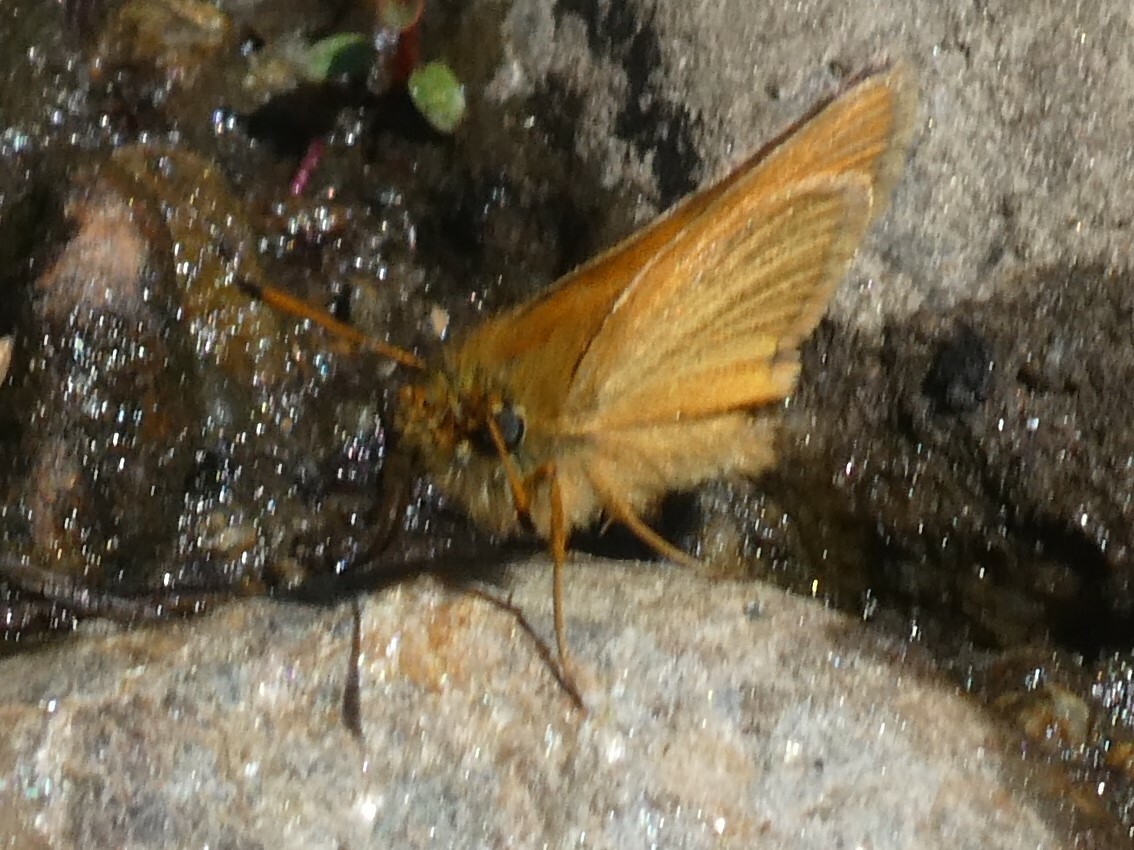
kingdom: Animalia
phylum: Arthropoda
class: Insecta
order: Lepidoptera
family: Hesperiidae
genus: Thymelicus
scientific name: Thymelicus lineola
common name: Essex skipper
